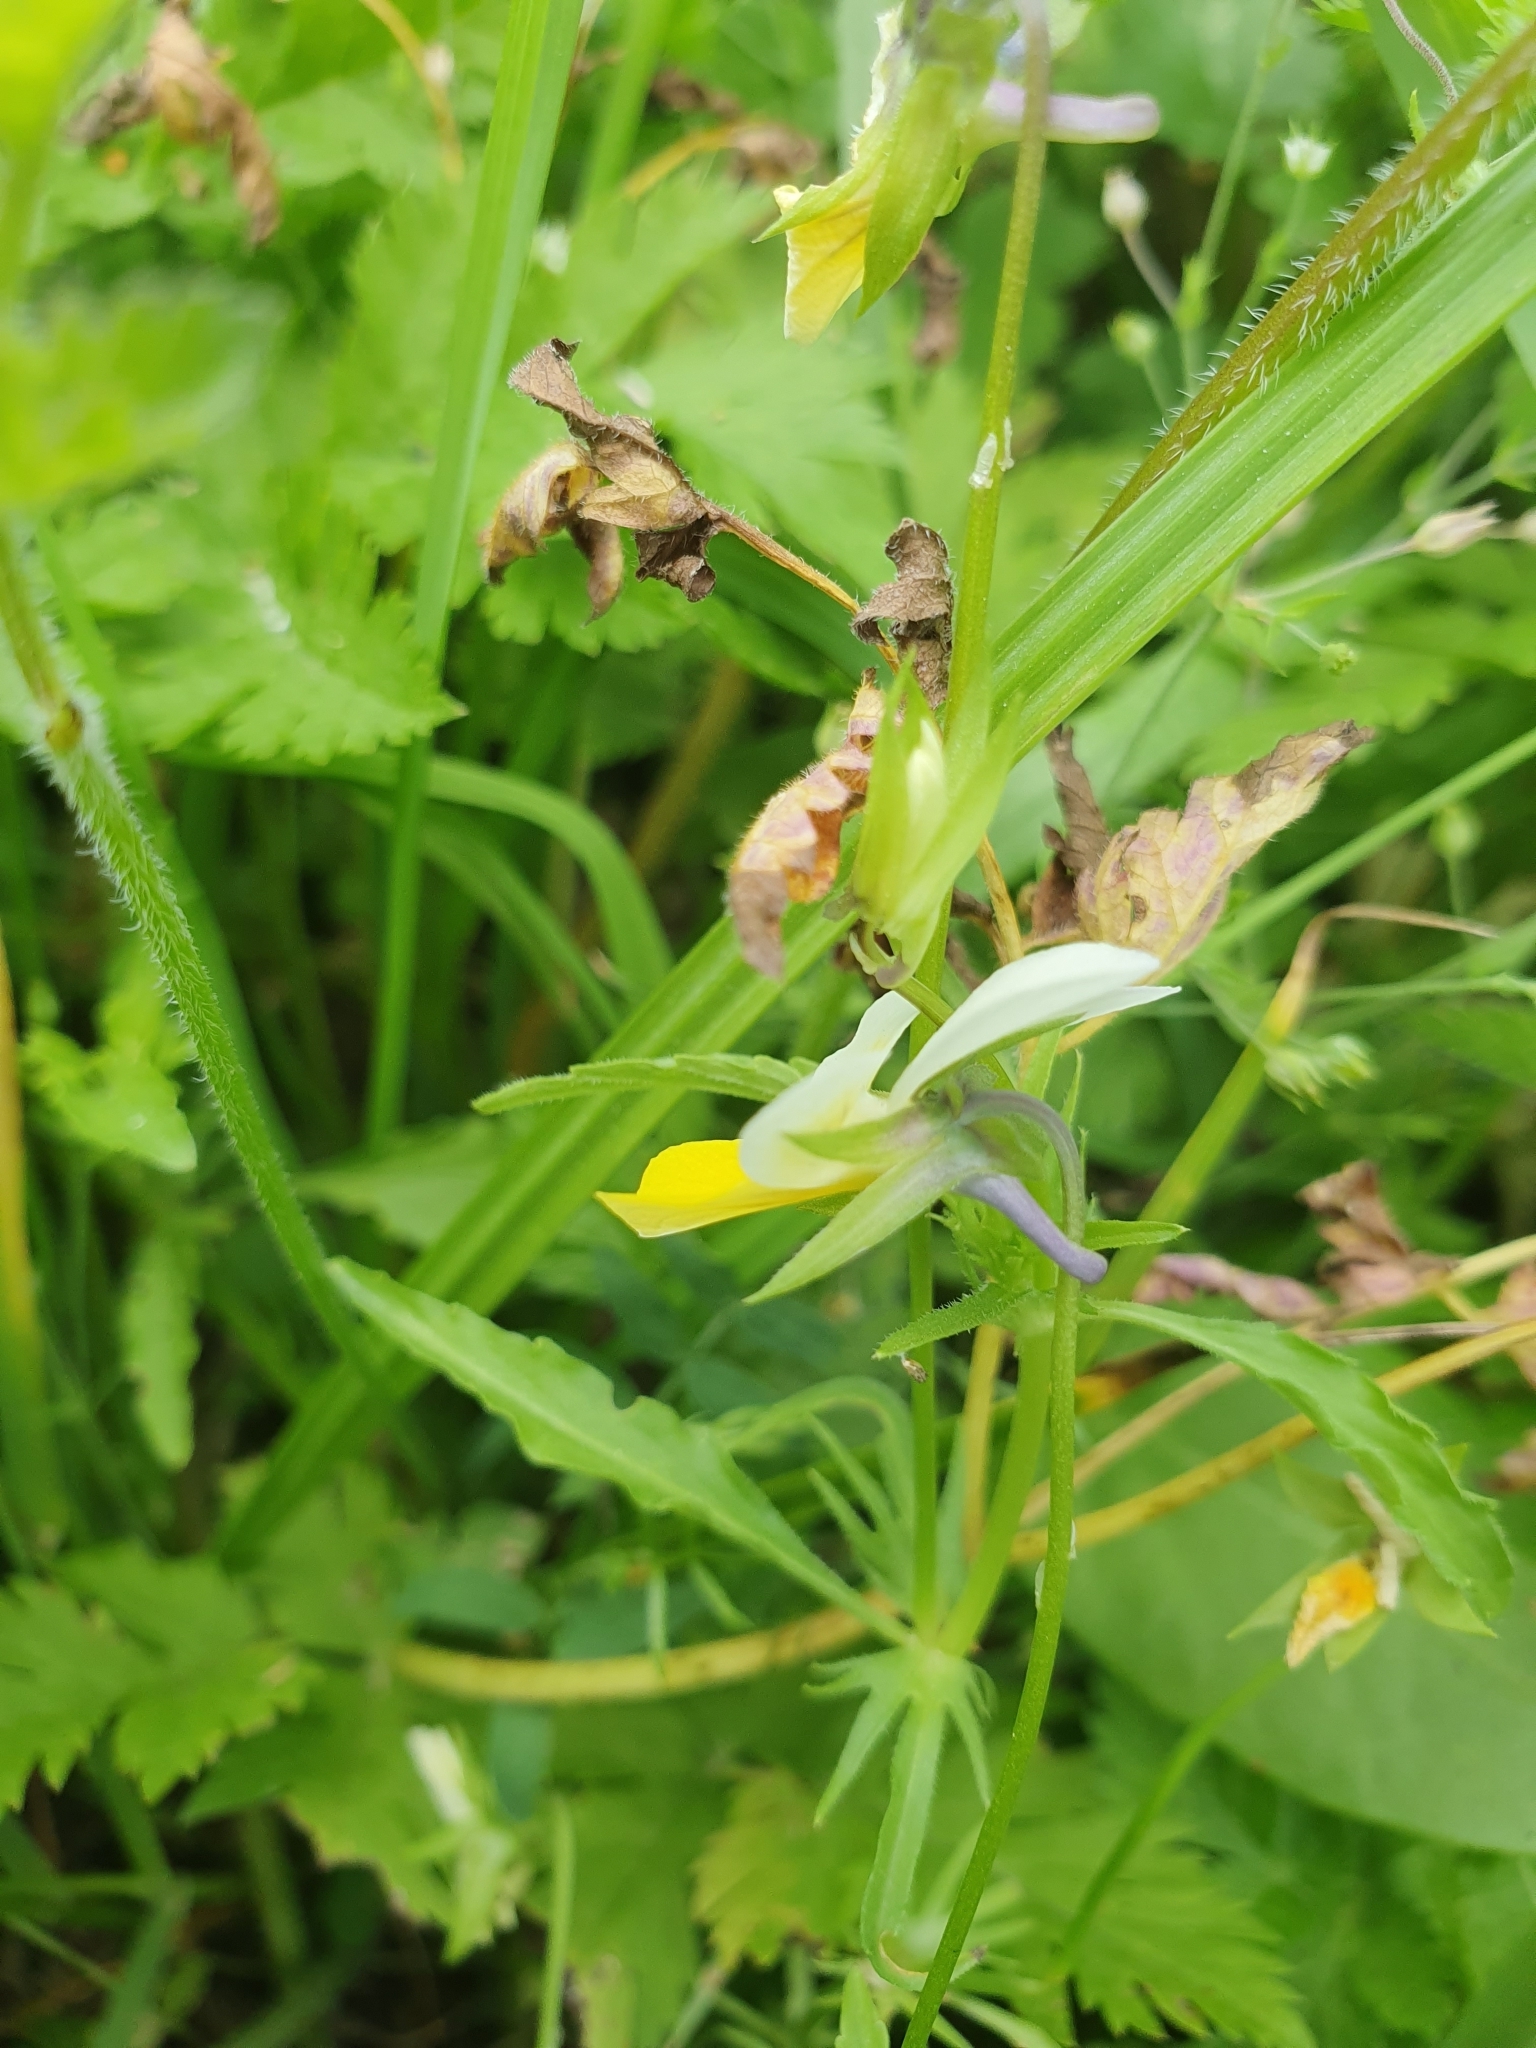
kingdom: Plantae
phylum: Tracheophyta
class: Magnoliopsida
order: Malpighiales
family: Violaceae
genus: Viola
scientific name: Viola arvensis
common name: Field pansy
